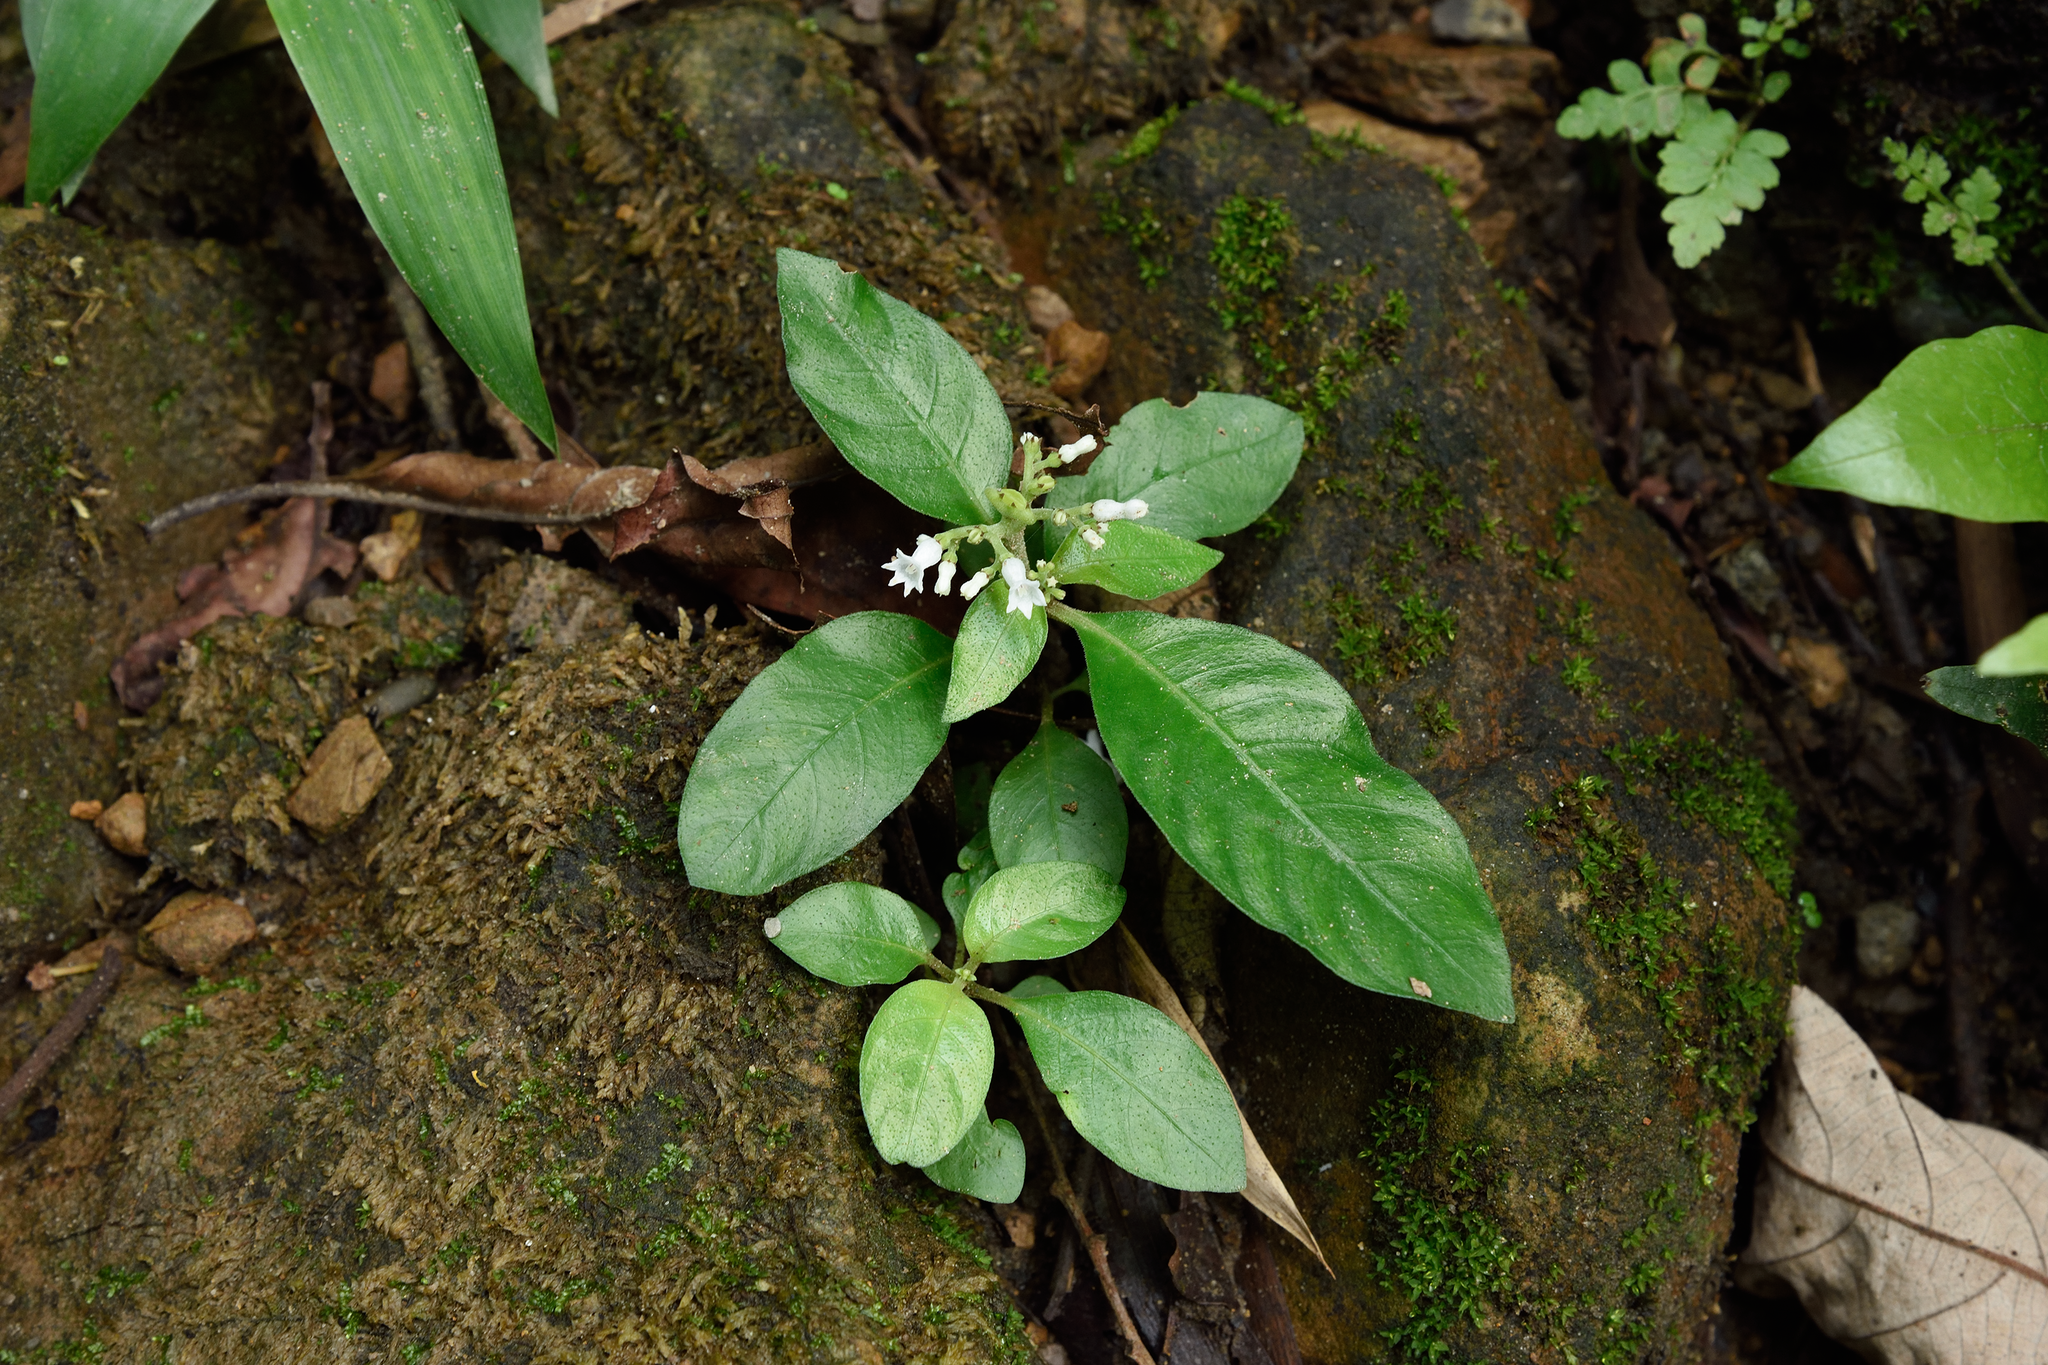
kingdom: Plantae
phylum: Tracheophyta
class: Magnoliopsida
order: Gentianales
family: Rubiaceae
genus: Ophiorrhiza
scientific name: Ophiorrhiza pumila
